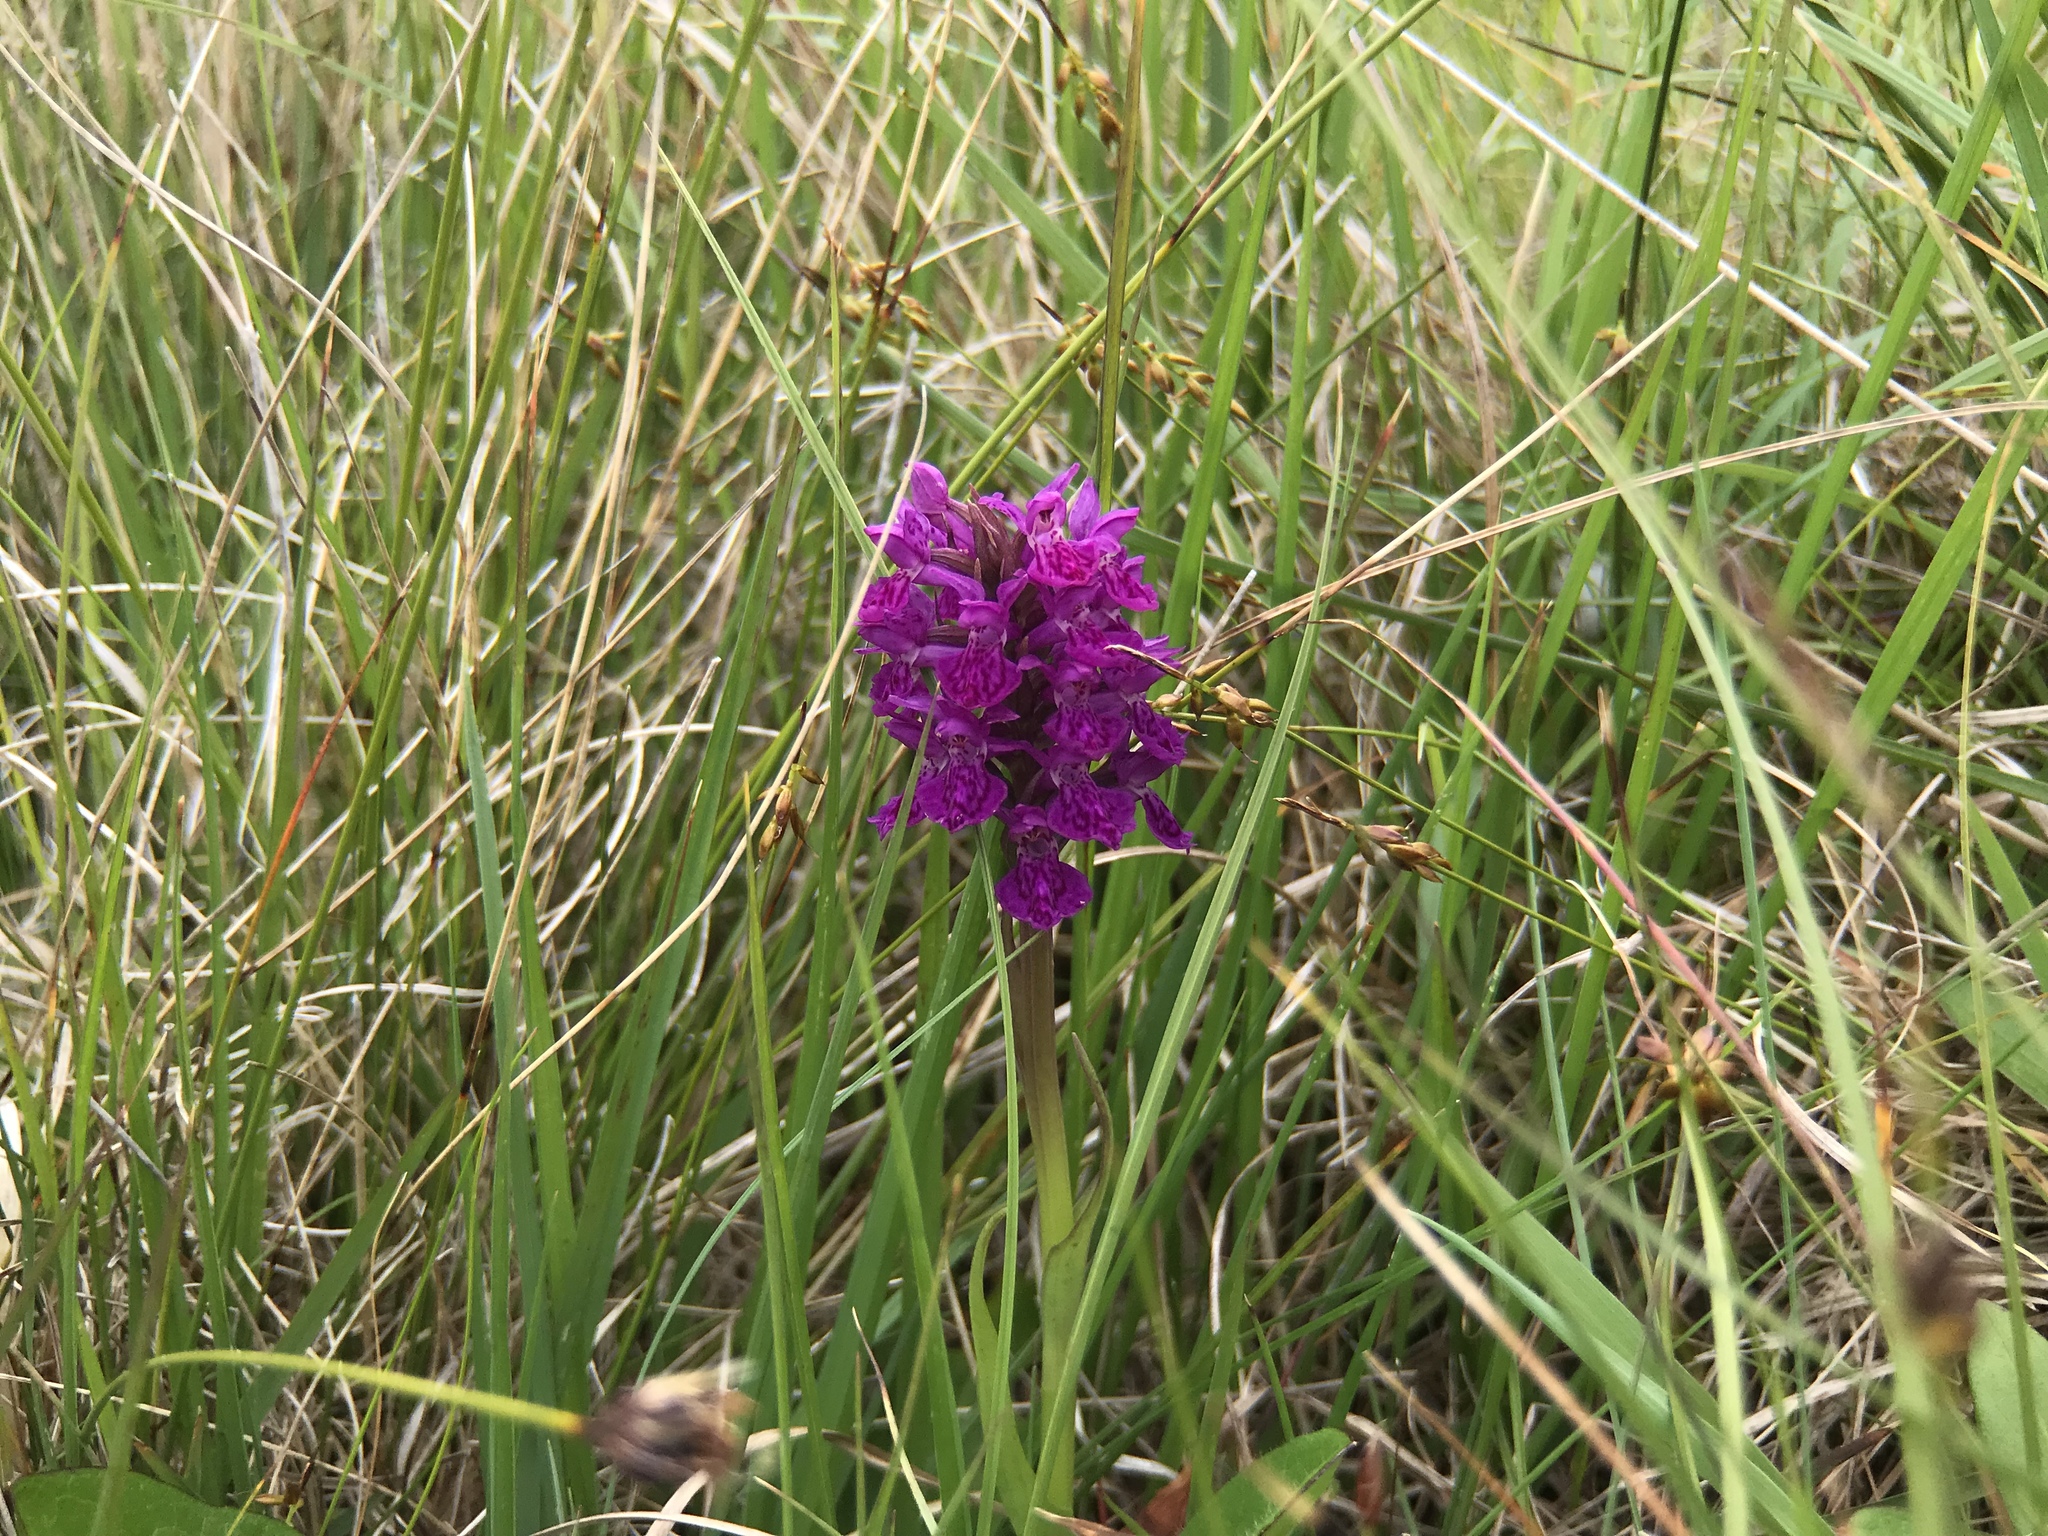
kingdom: Plantae
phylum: Tracheophyta
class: Liliopsida
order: Asparagales
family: Orchidaceae
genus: Dactylorhiza
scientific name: Dactylorhiza majalis
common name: Marsh orchid
